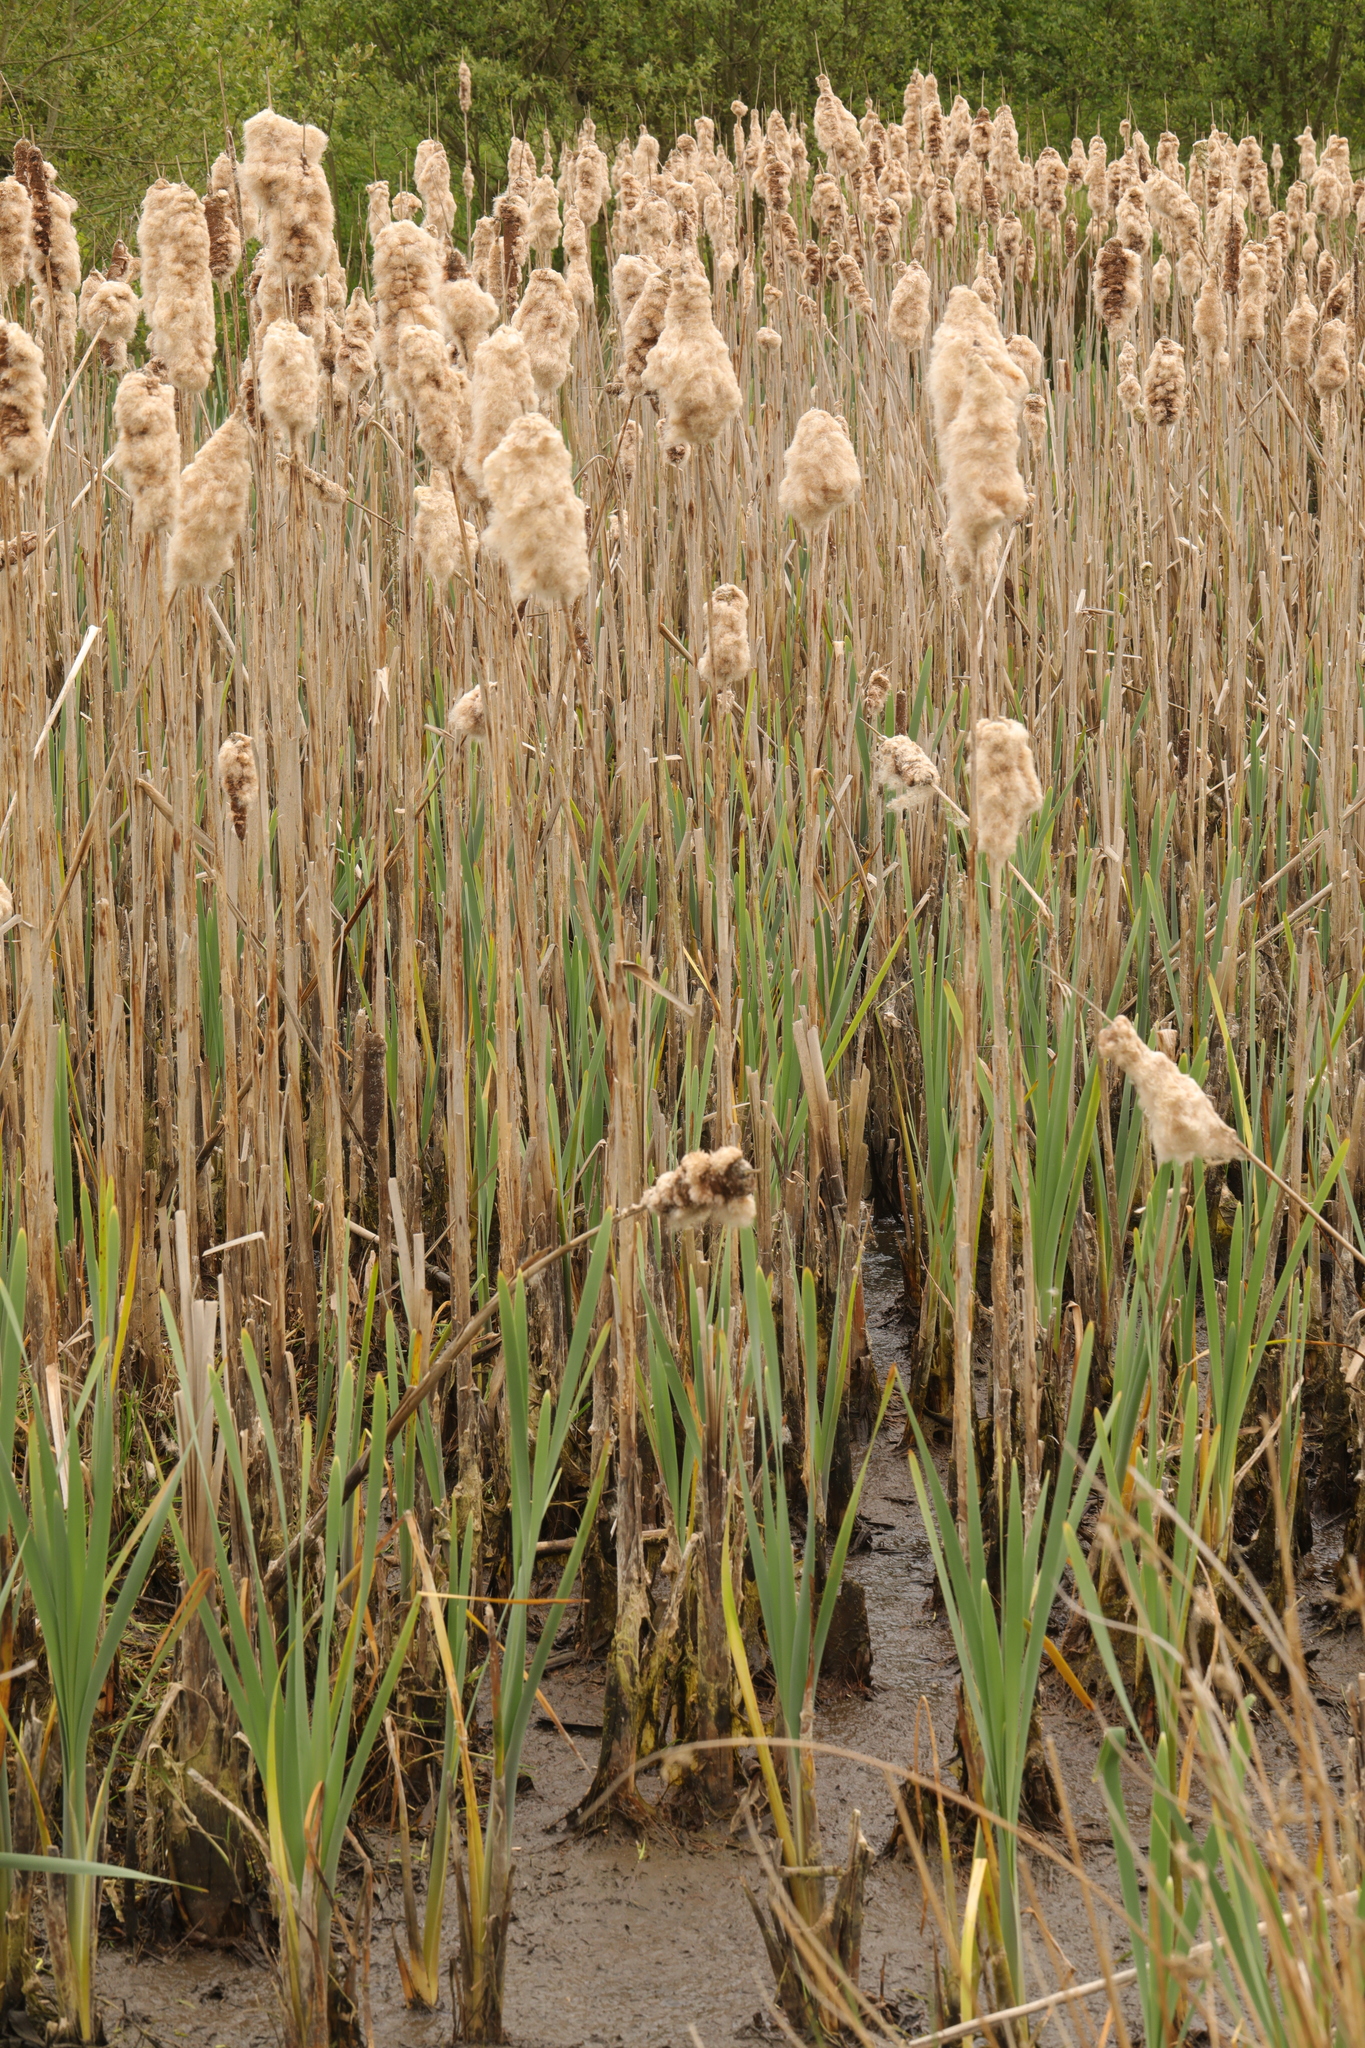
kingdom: Plantae
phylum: Tracheophyta
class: Liliopsida
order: Poales
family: Typhaceae
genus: Typha
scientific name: Typha latifolia
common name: Broadleaf cattail
